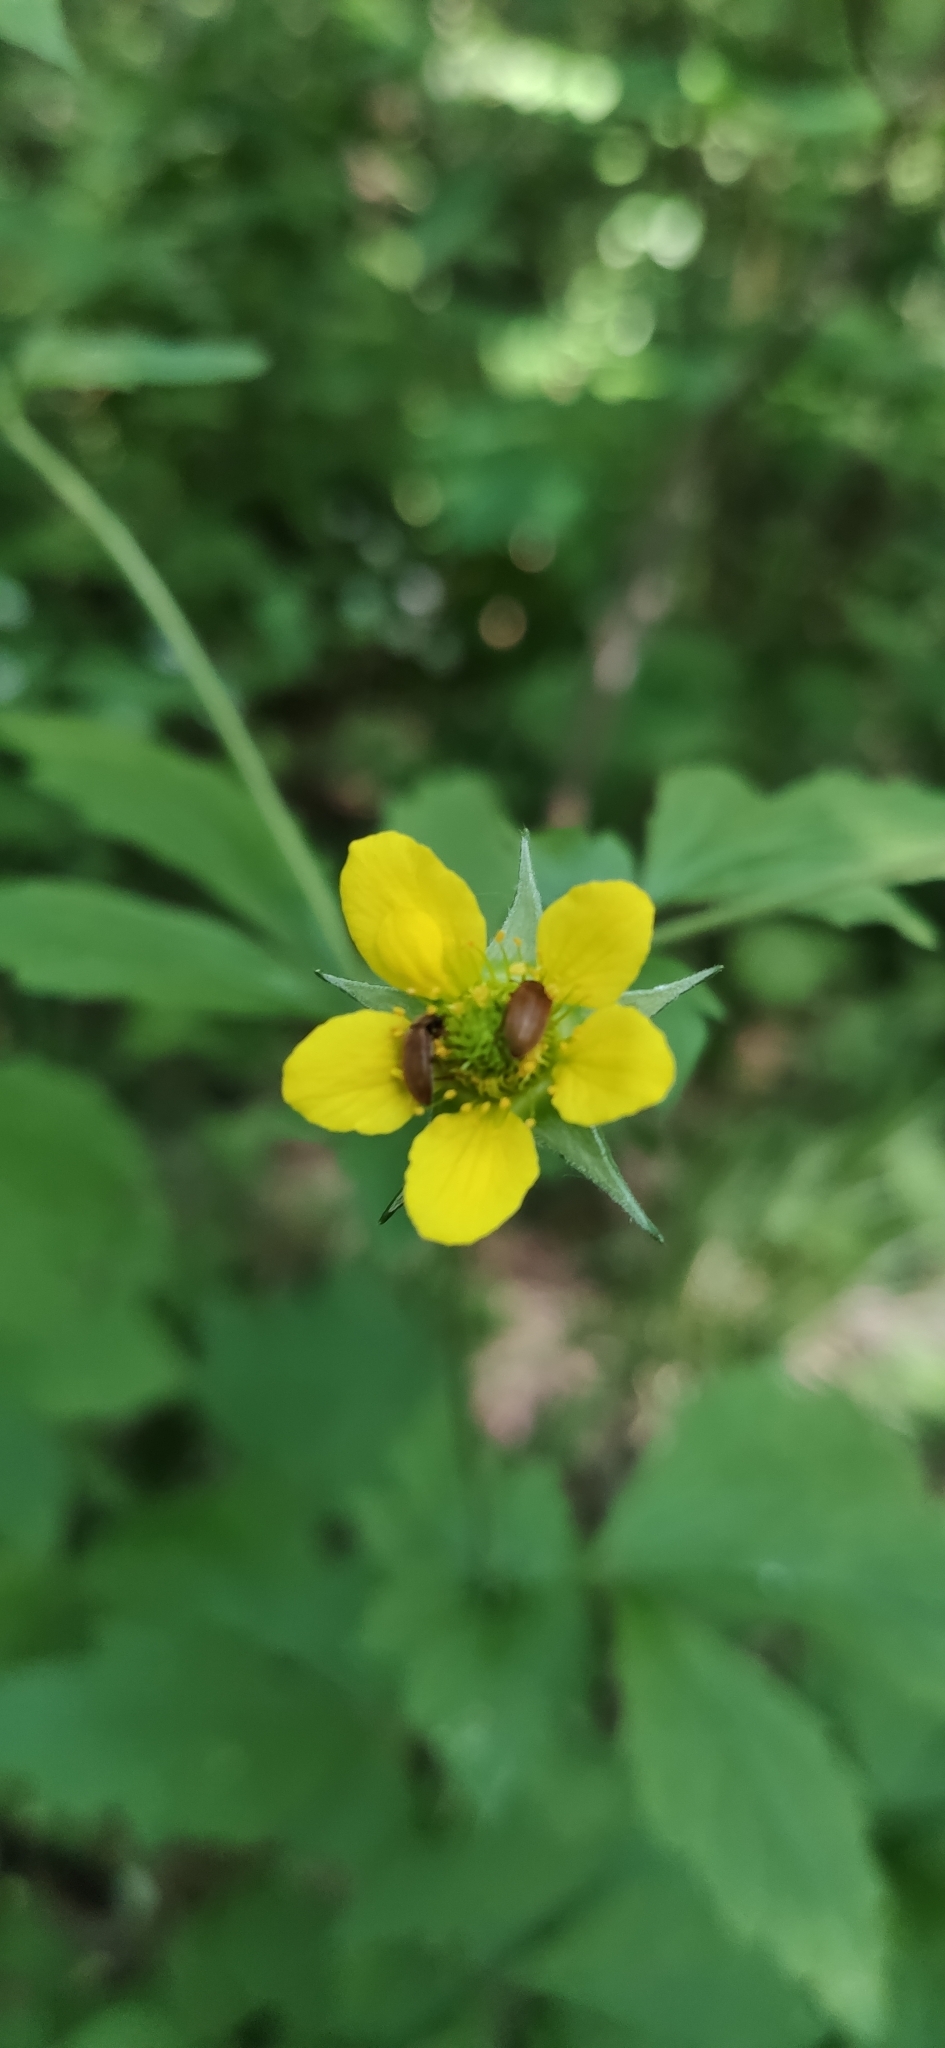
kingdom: Plantae
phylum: Tracheophyta
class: Magnoliopsida
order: Rosales
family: Rosaceae
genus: Geum
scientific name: Geum urbanum
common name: Wood avens
